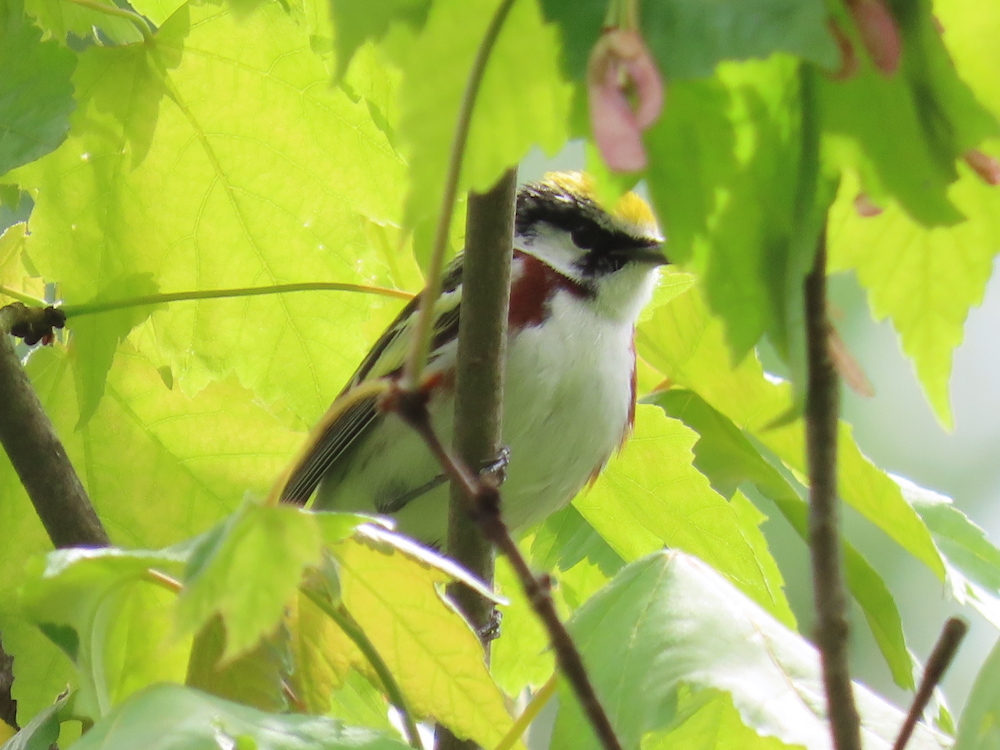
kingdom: Animalia
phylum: Chordata
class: Aves
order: Passeriformes
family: Parulidae
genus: Setophaga
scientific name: Setophaga pensylvanica
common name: Chestnut-sided warbler
